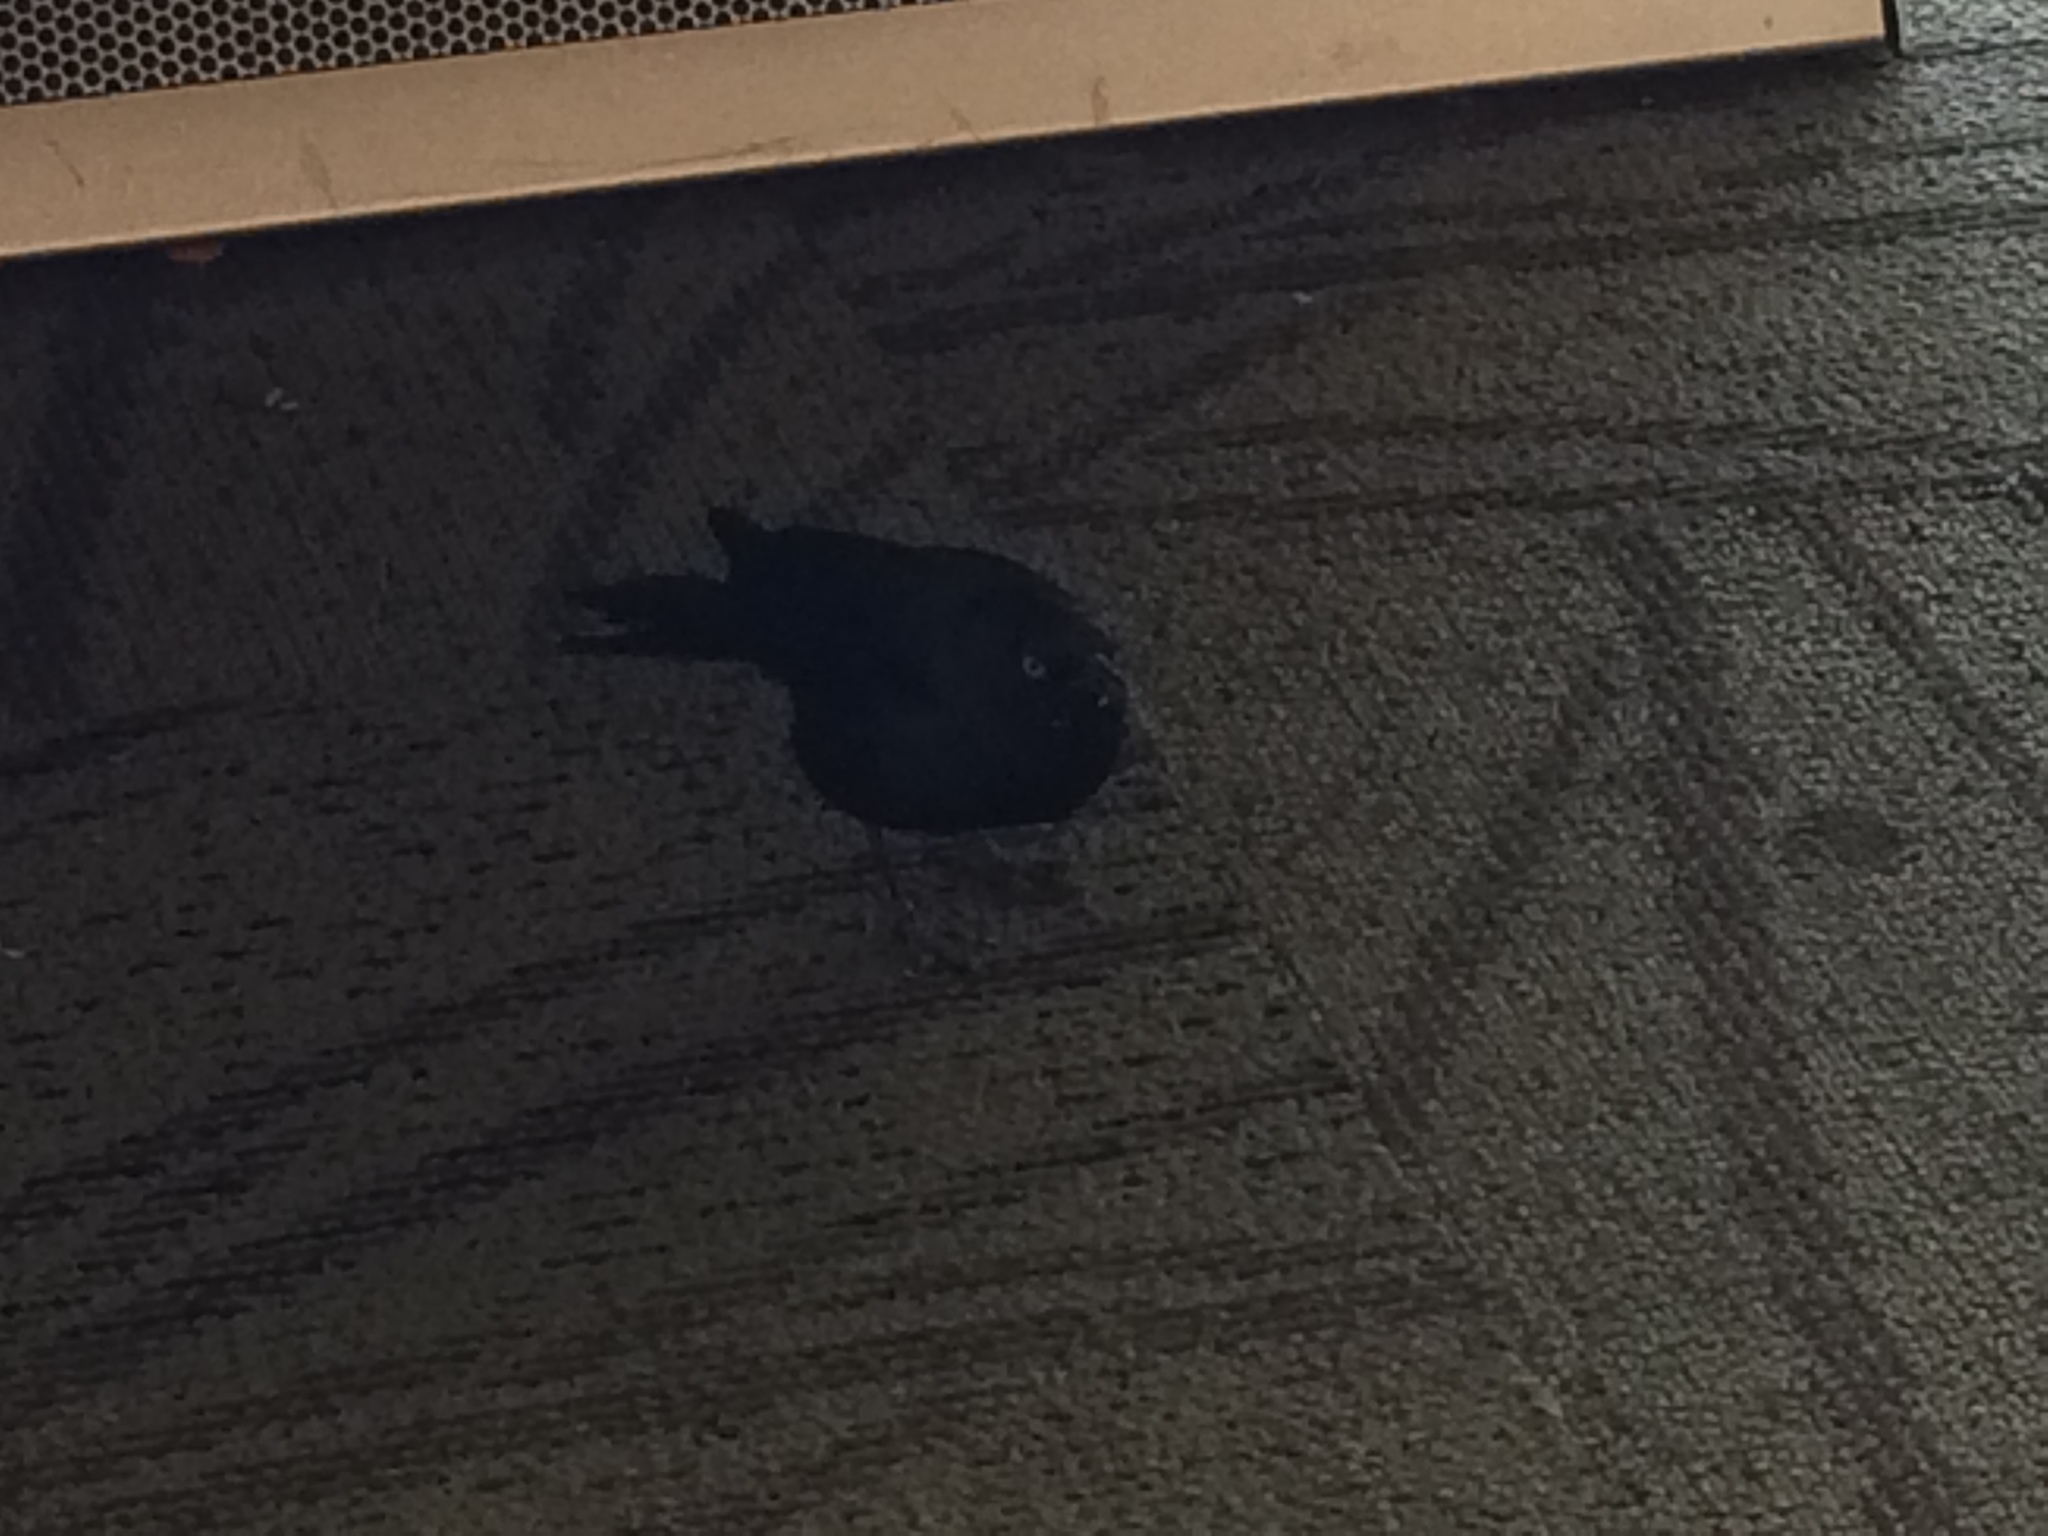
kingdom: Animalia
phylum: Chordata
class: Aves
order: Passeriformes
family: Icteridae
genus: Euphagus
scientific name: Euphagus cyanocephalus
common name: Brewer's blackbird
